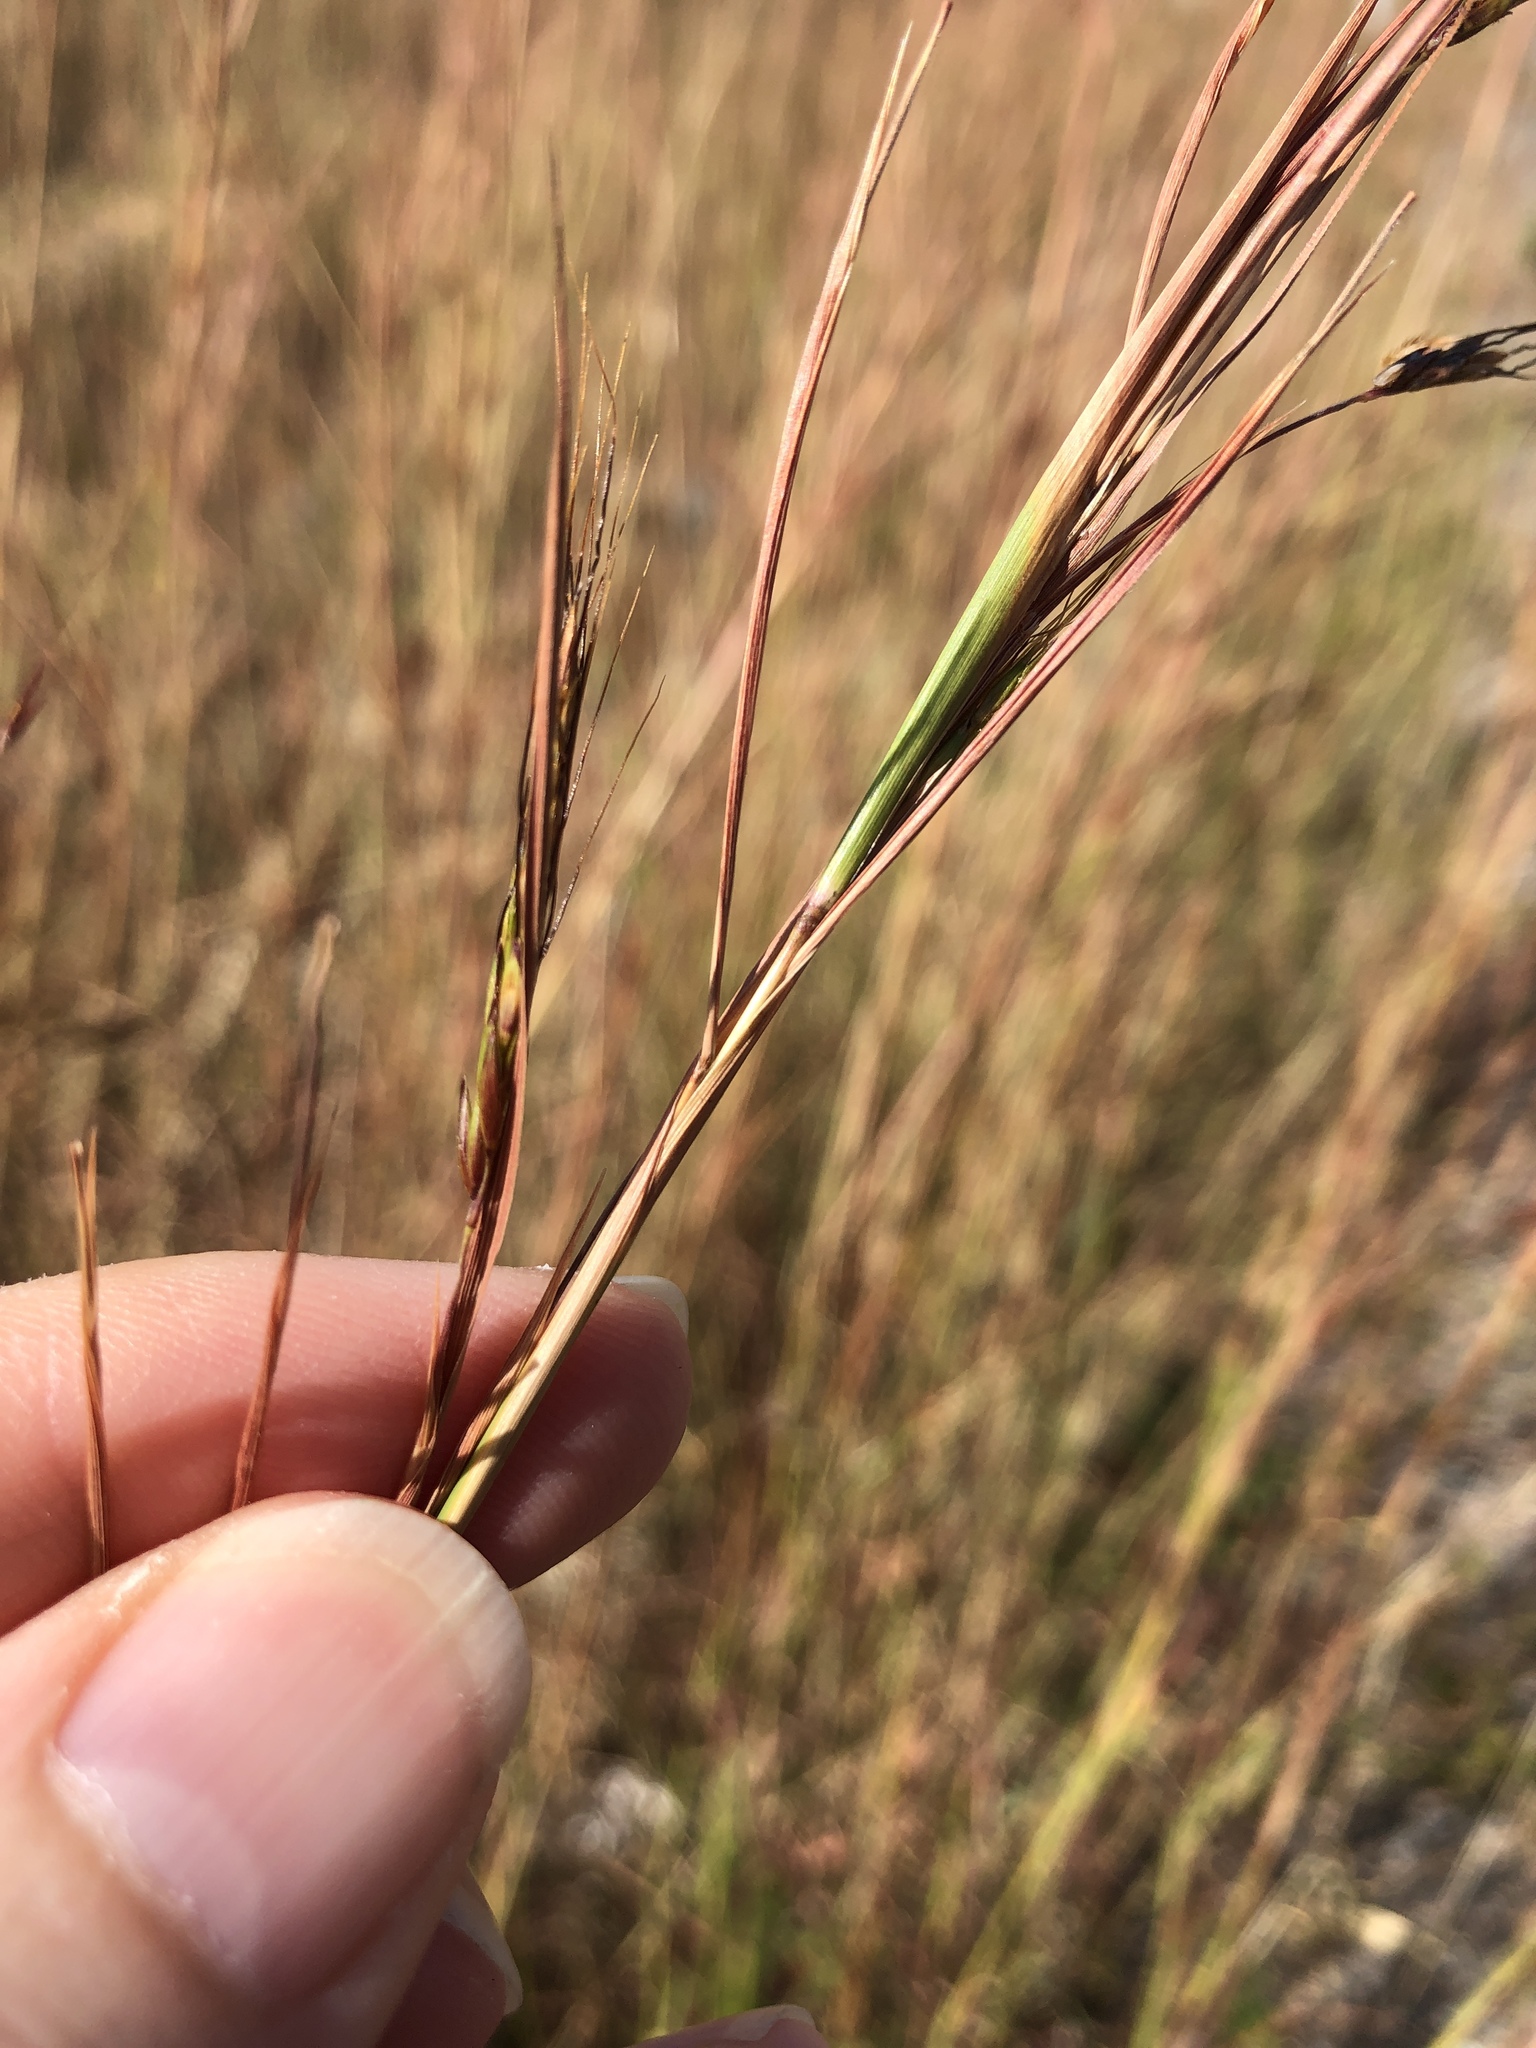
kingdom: Plantae
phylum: Tracheophyta
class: Liliopsida
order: Poales
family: Poaceae
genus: Hyparrhenia
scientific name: Hyparrhenia rufa
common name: Jaraguagrass
